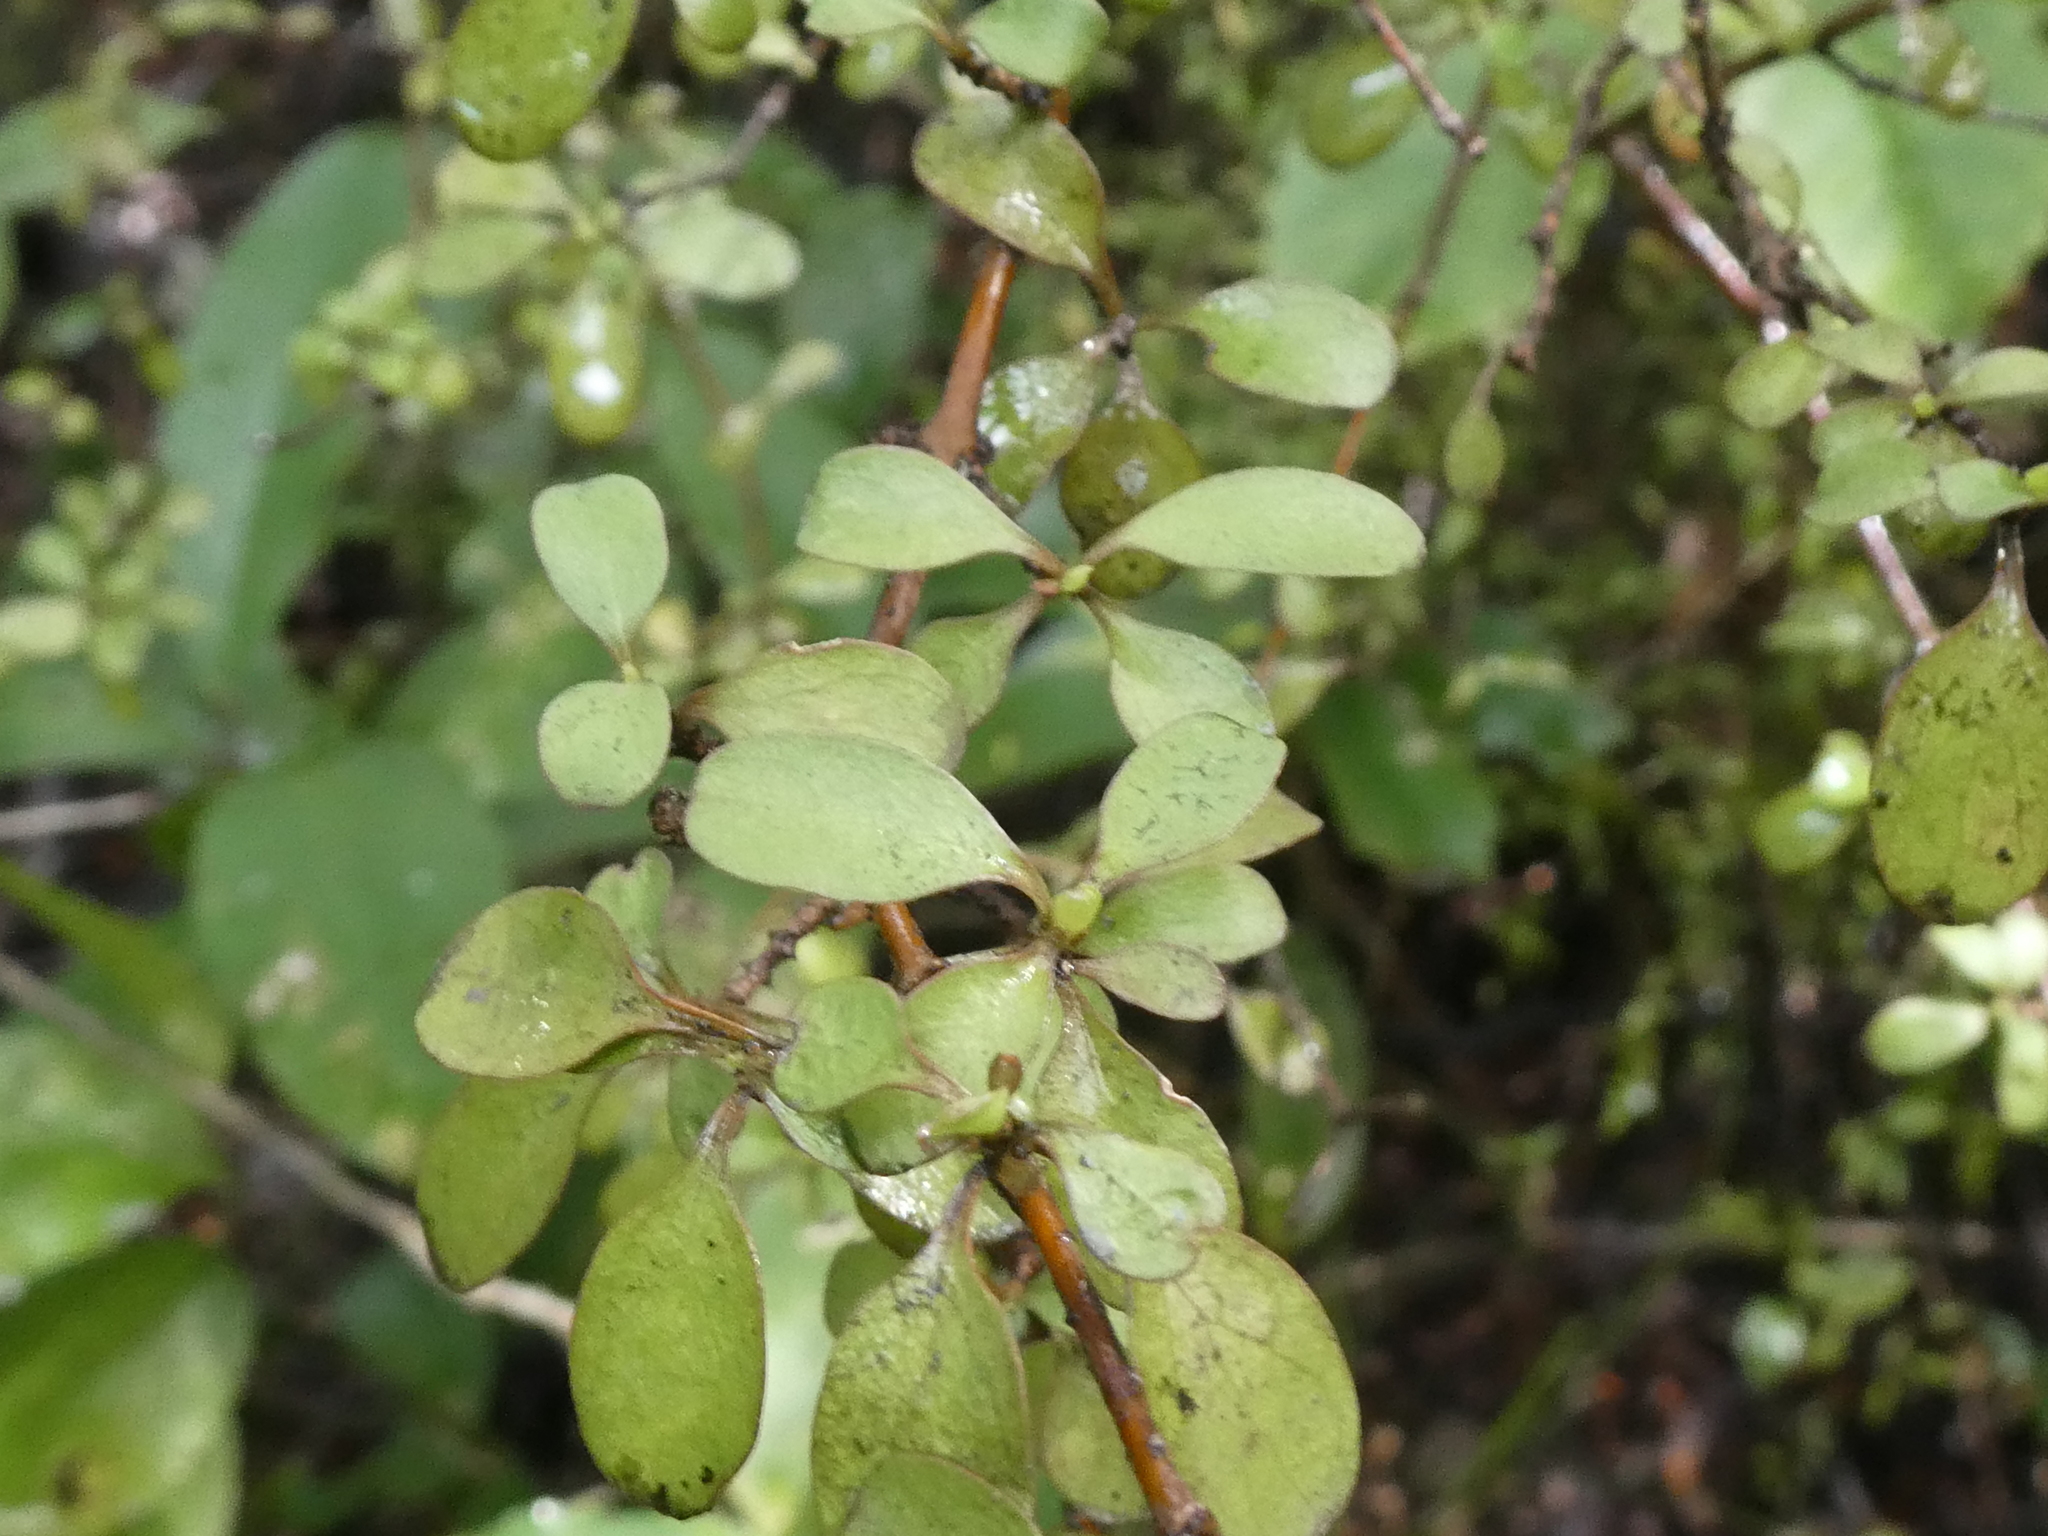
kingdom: Plantae
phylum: Tracheophyta
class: Magnoliopsida
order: Gentianales
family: Rubiaceae
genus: Coprosma
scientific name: Coprosma foetidissima
